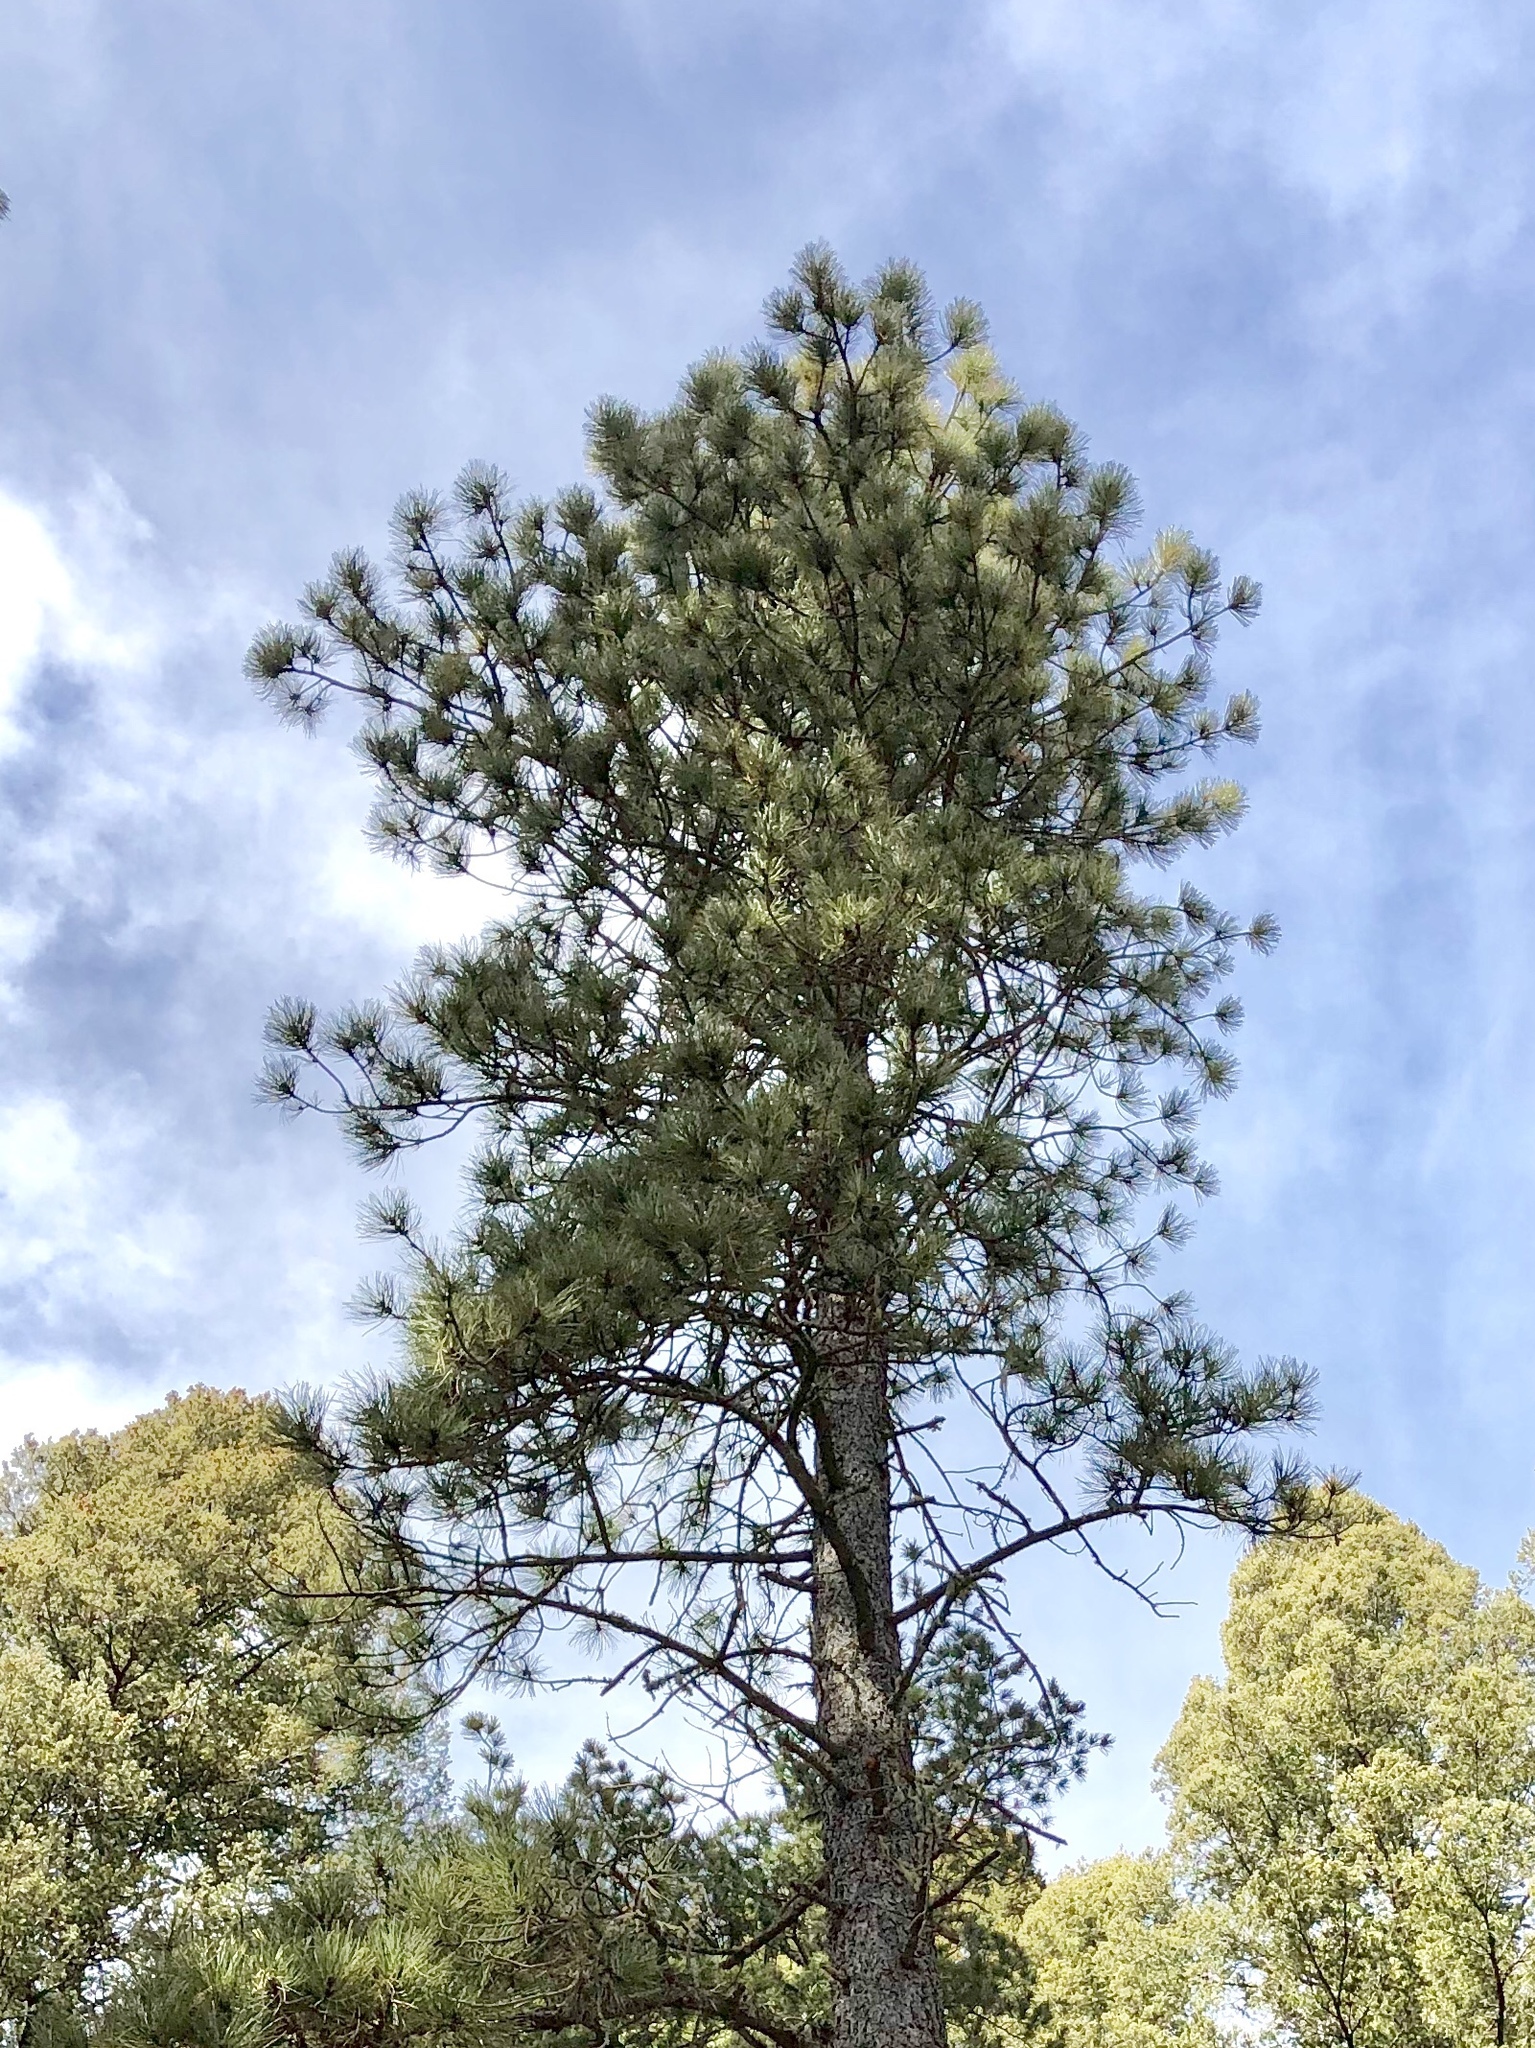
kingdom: Plantae
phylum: Tracheophyta
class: Pinopsida
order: Pinales
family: Pinaceae
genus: Pinus
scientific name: Pinus ponderosa
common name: Western yellow-pine
